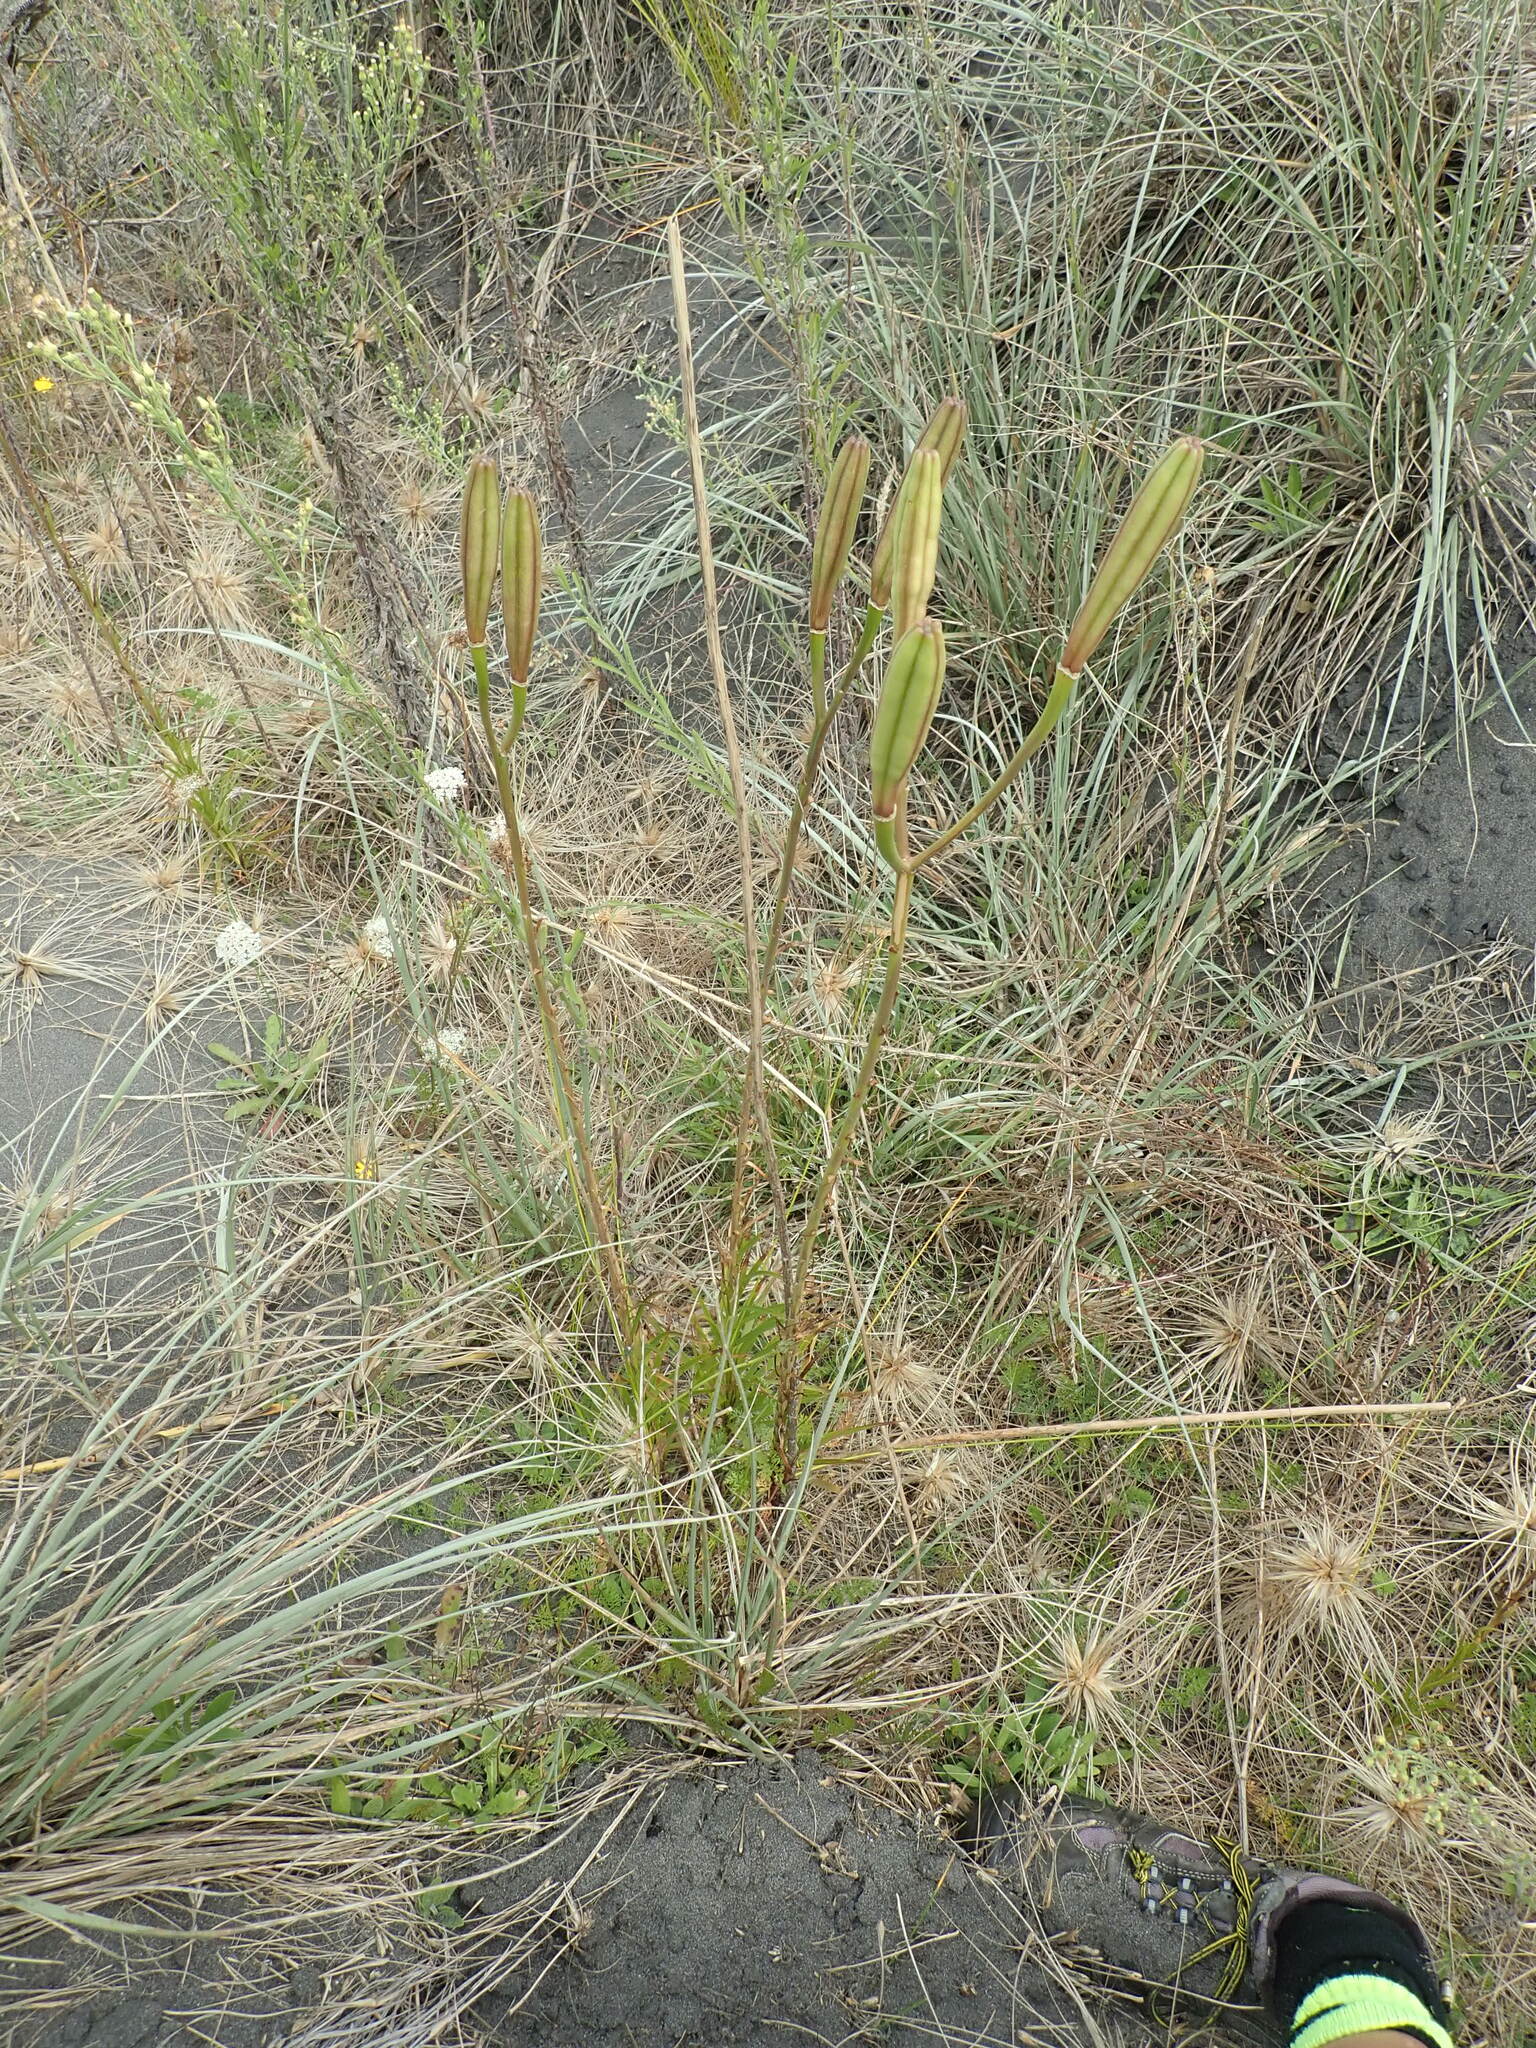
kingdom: Plantae
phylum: Tracheophyta
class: Liliopsida
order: Liliales
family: Liliaceae
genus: Lilium
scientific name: Lilium formosanum
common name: Formosa lily
